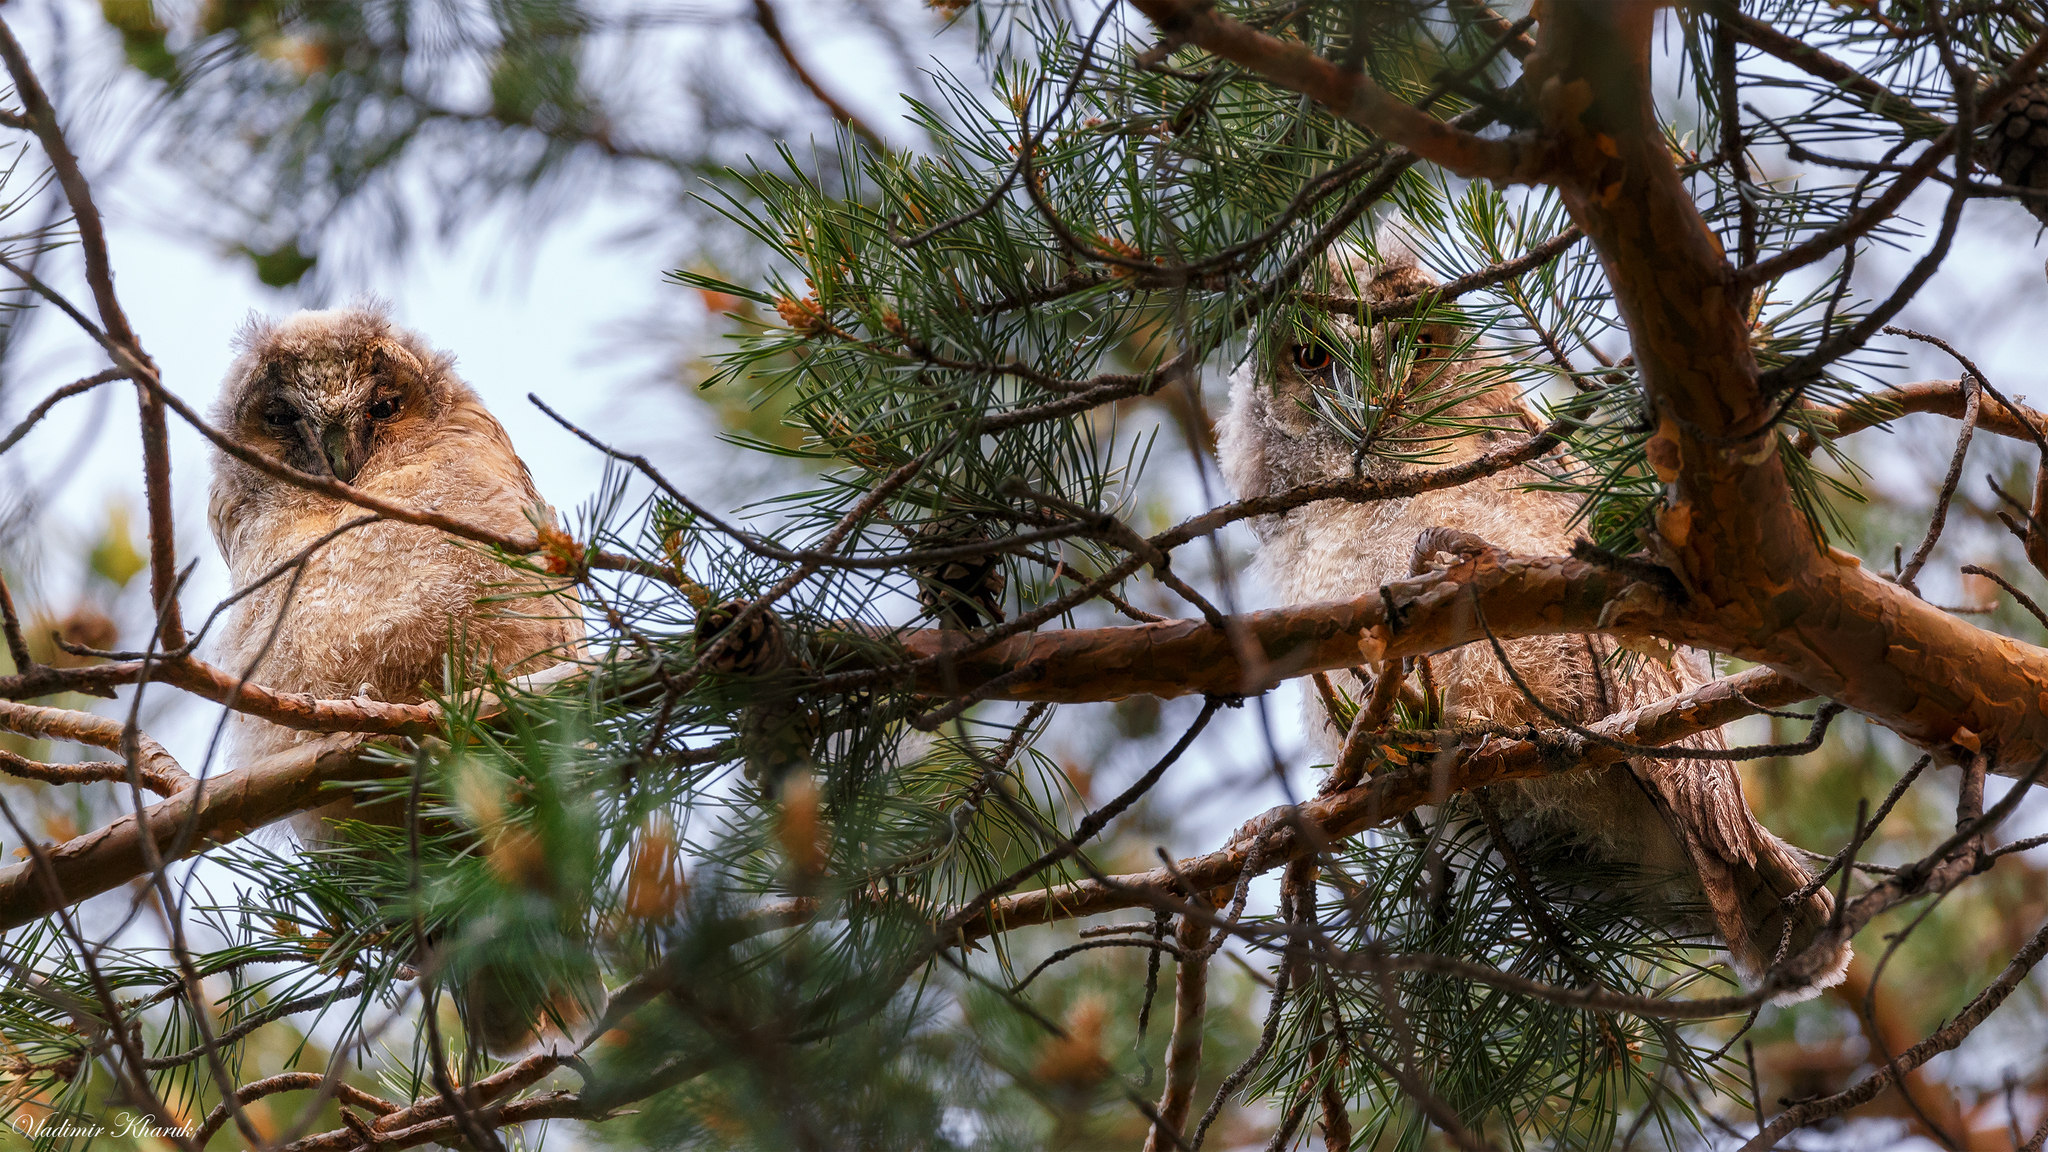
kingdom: Animalia
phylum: Chordata
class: Aves
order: Strigiformes
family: Strigidae
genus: Asio
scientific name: Asio otus
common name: Long-eared owl
